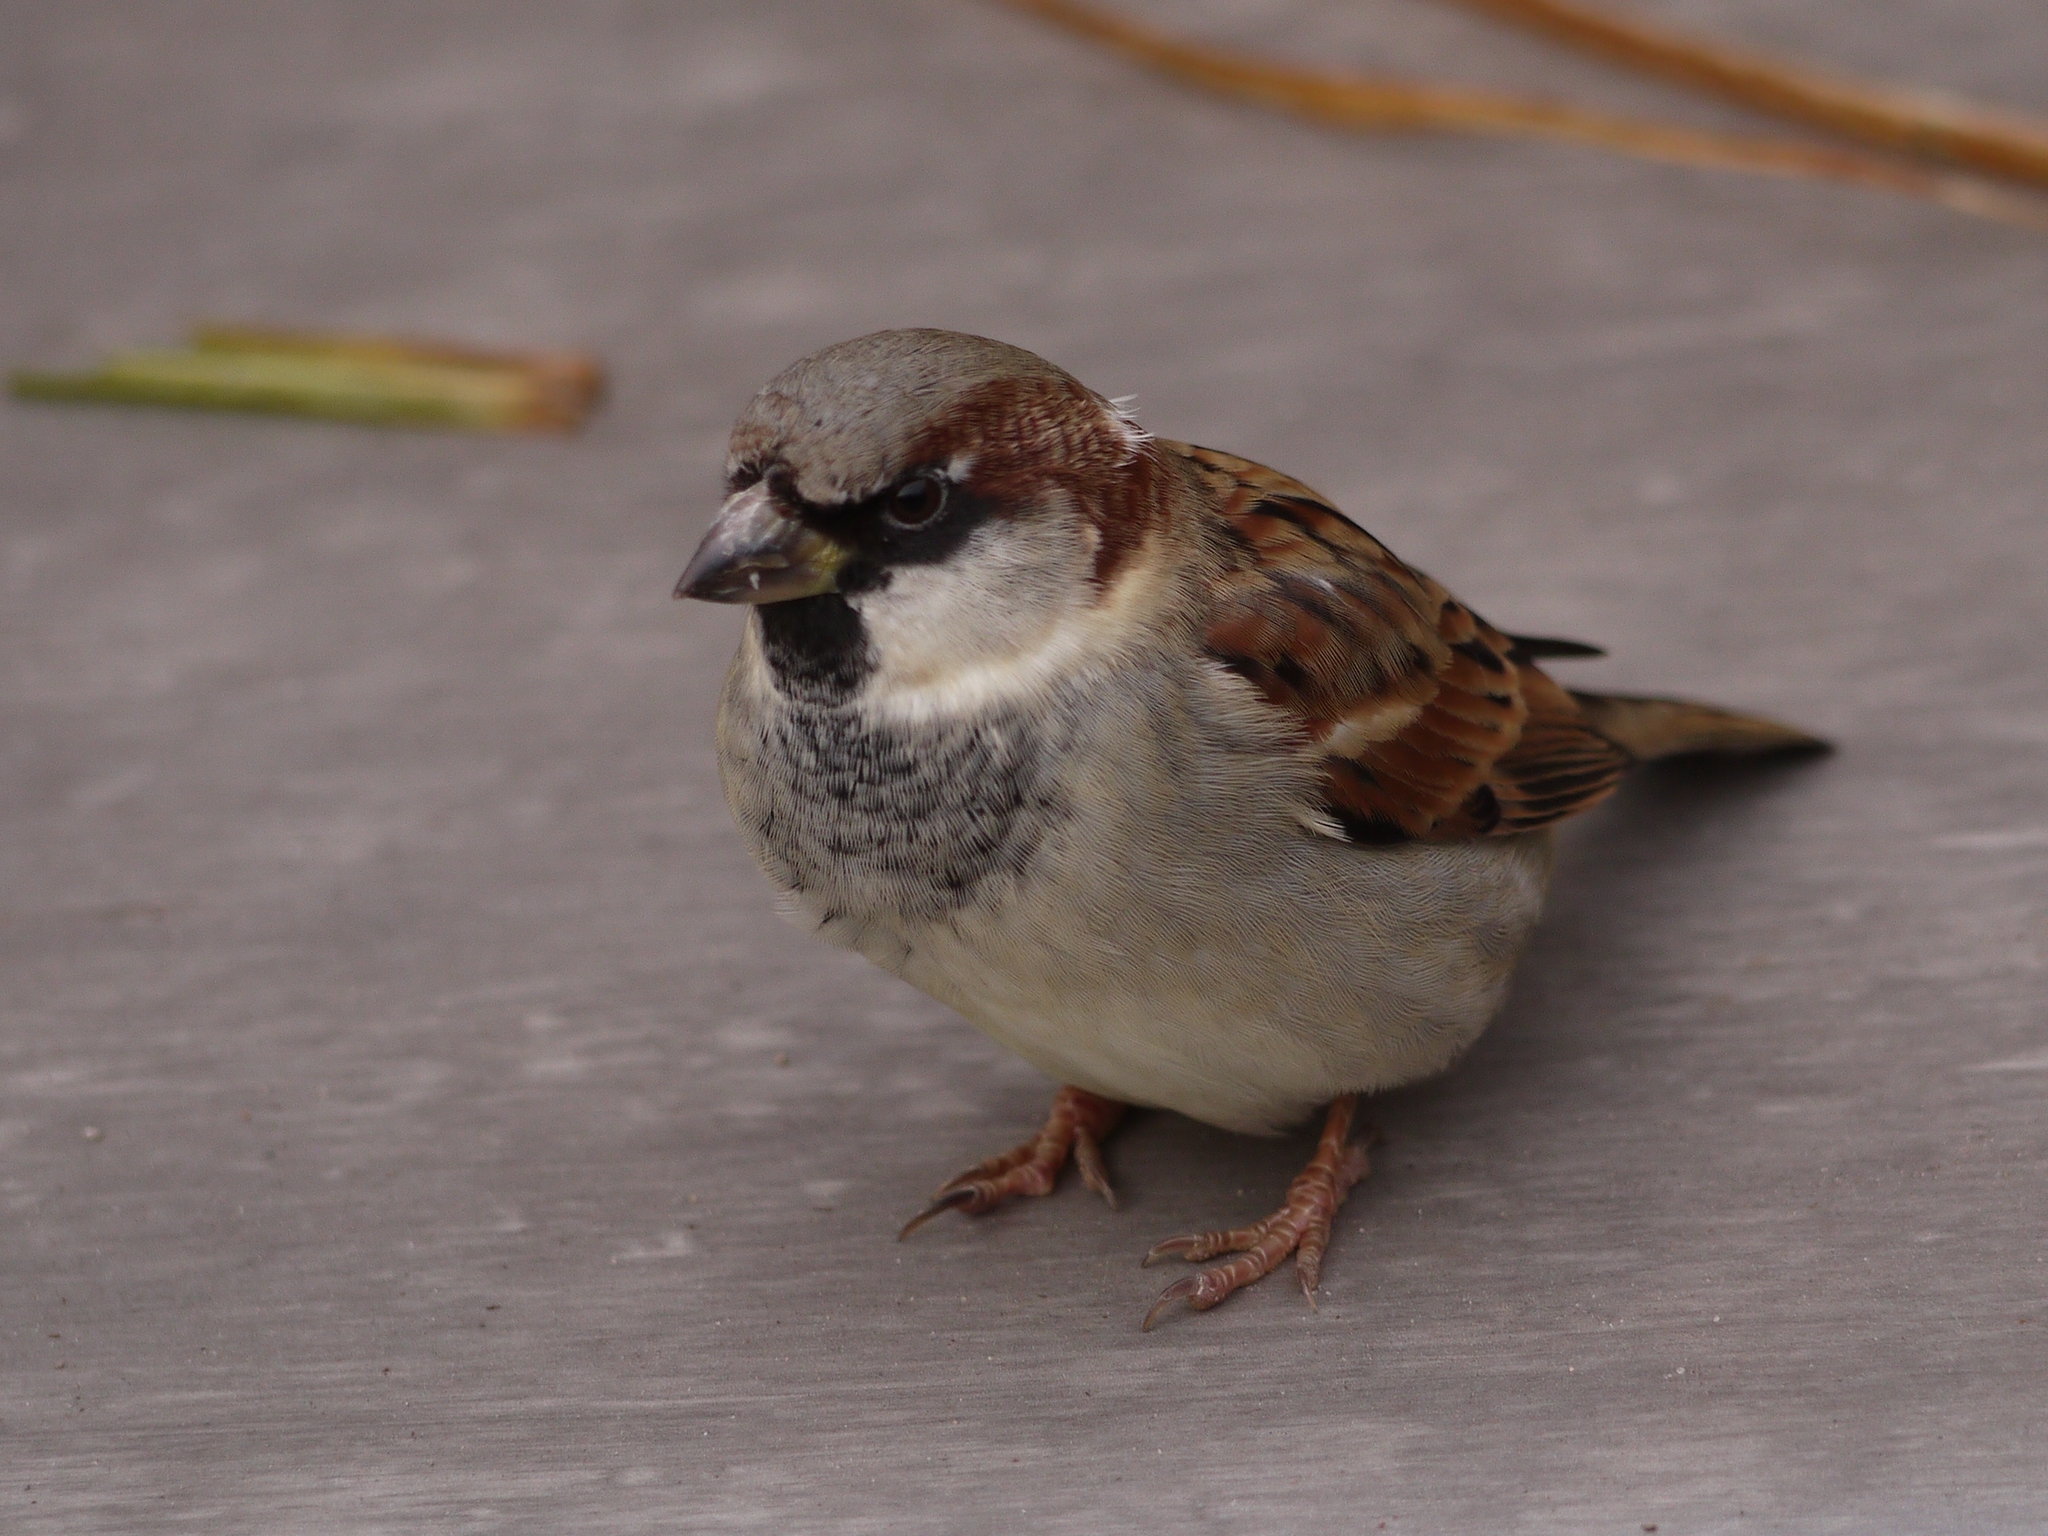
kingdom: Animalia
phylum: Chordata
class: Aves
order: Passeriformes
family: Passeridae
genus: Passer
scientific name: Passer domesticus
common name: House sparrow
